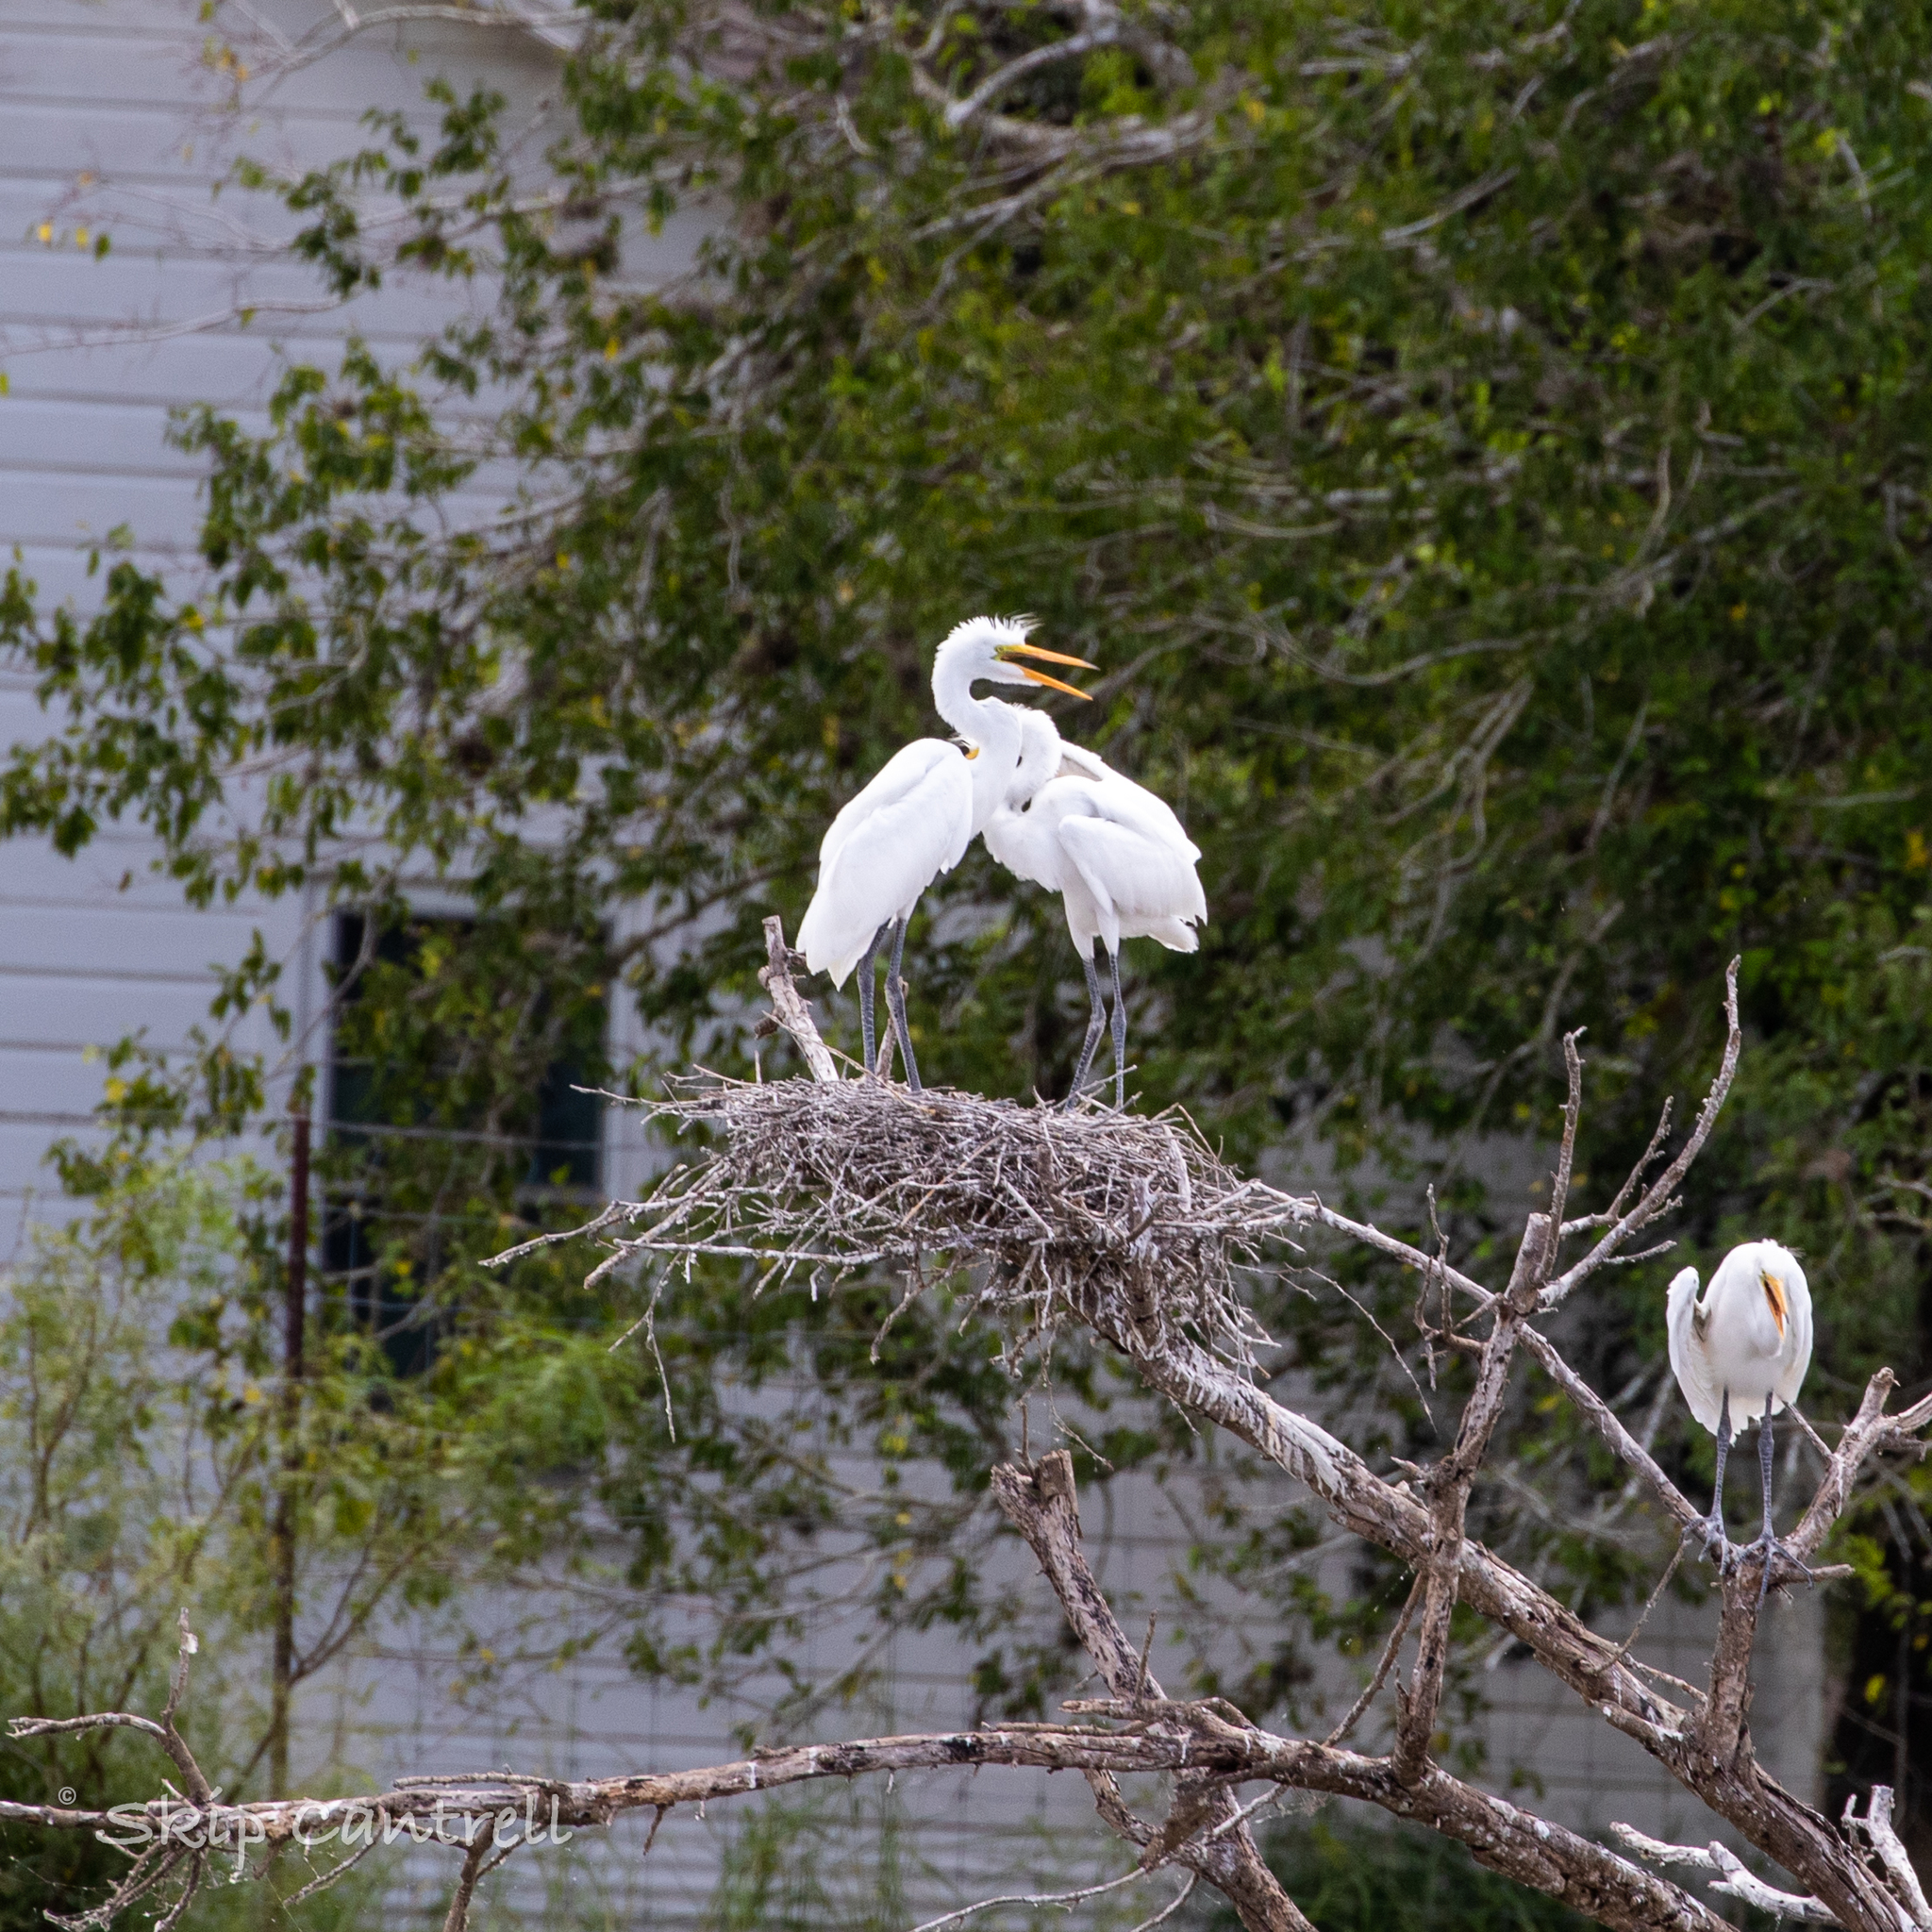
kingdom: Animalia
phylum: Chordata
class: Aves
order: Pelecaniformes
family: Ardeidae
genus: Ardea
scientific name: Ardea alba
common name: Great egret
